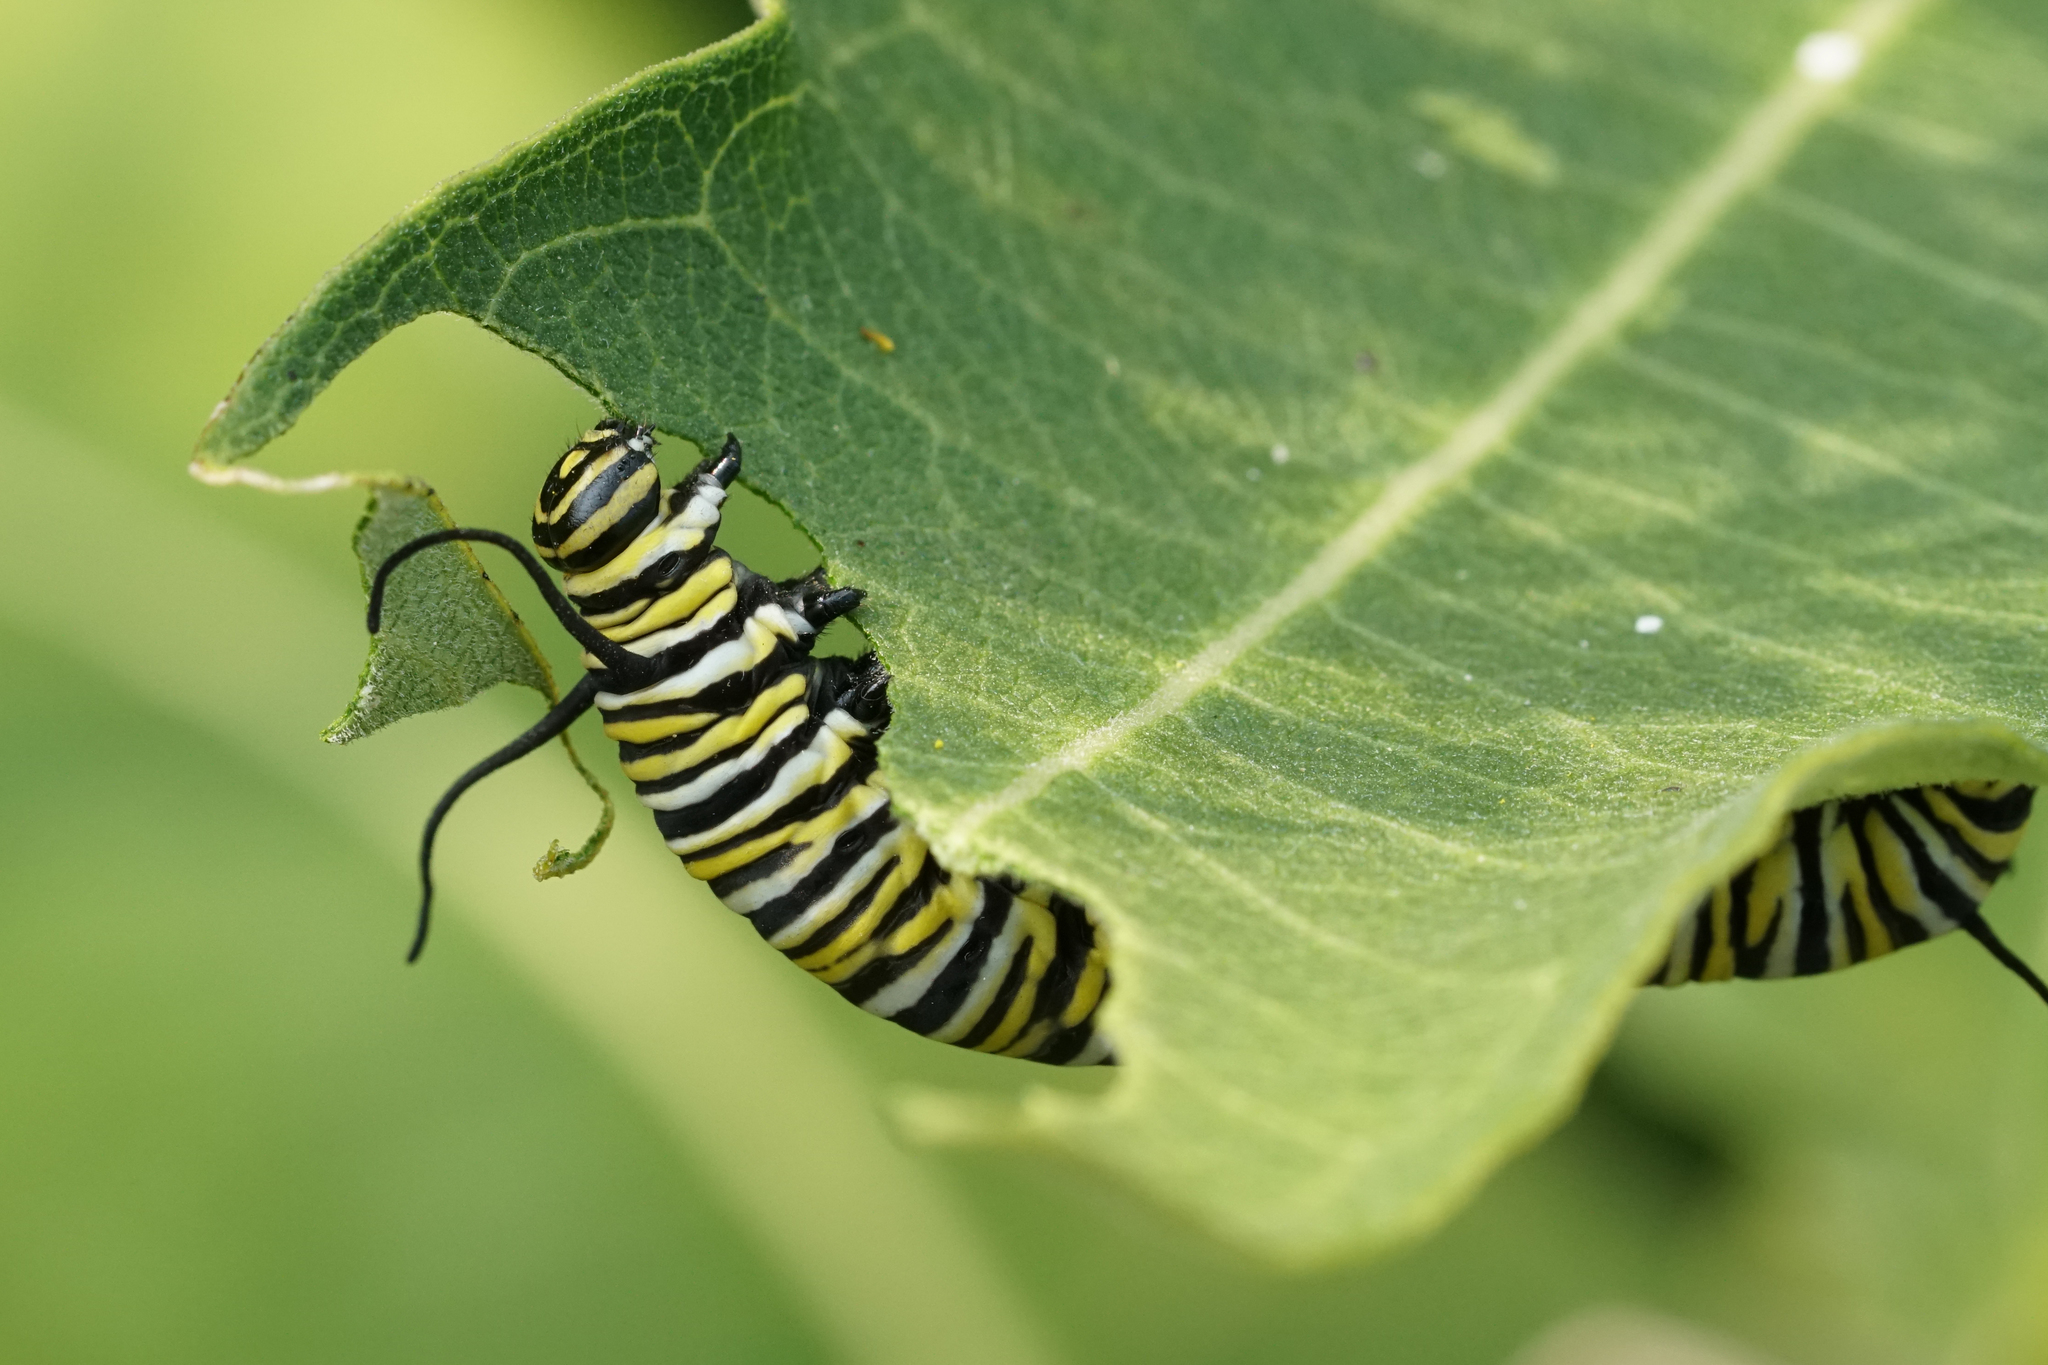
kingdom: Animalia
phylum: Arthropoda
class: Insecta
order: Lepidoptera
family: Nymphalidae
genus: Danaus
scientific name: Danaus plexippus
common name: Monarch
